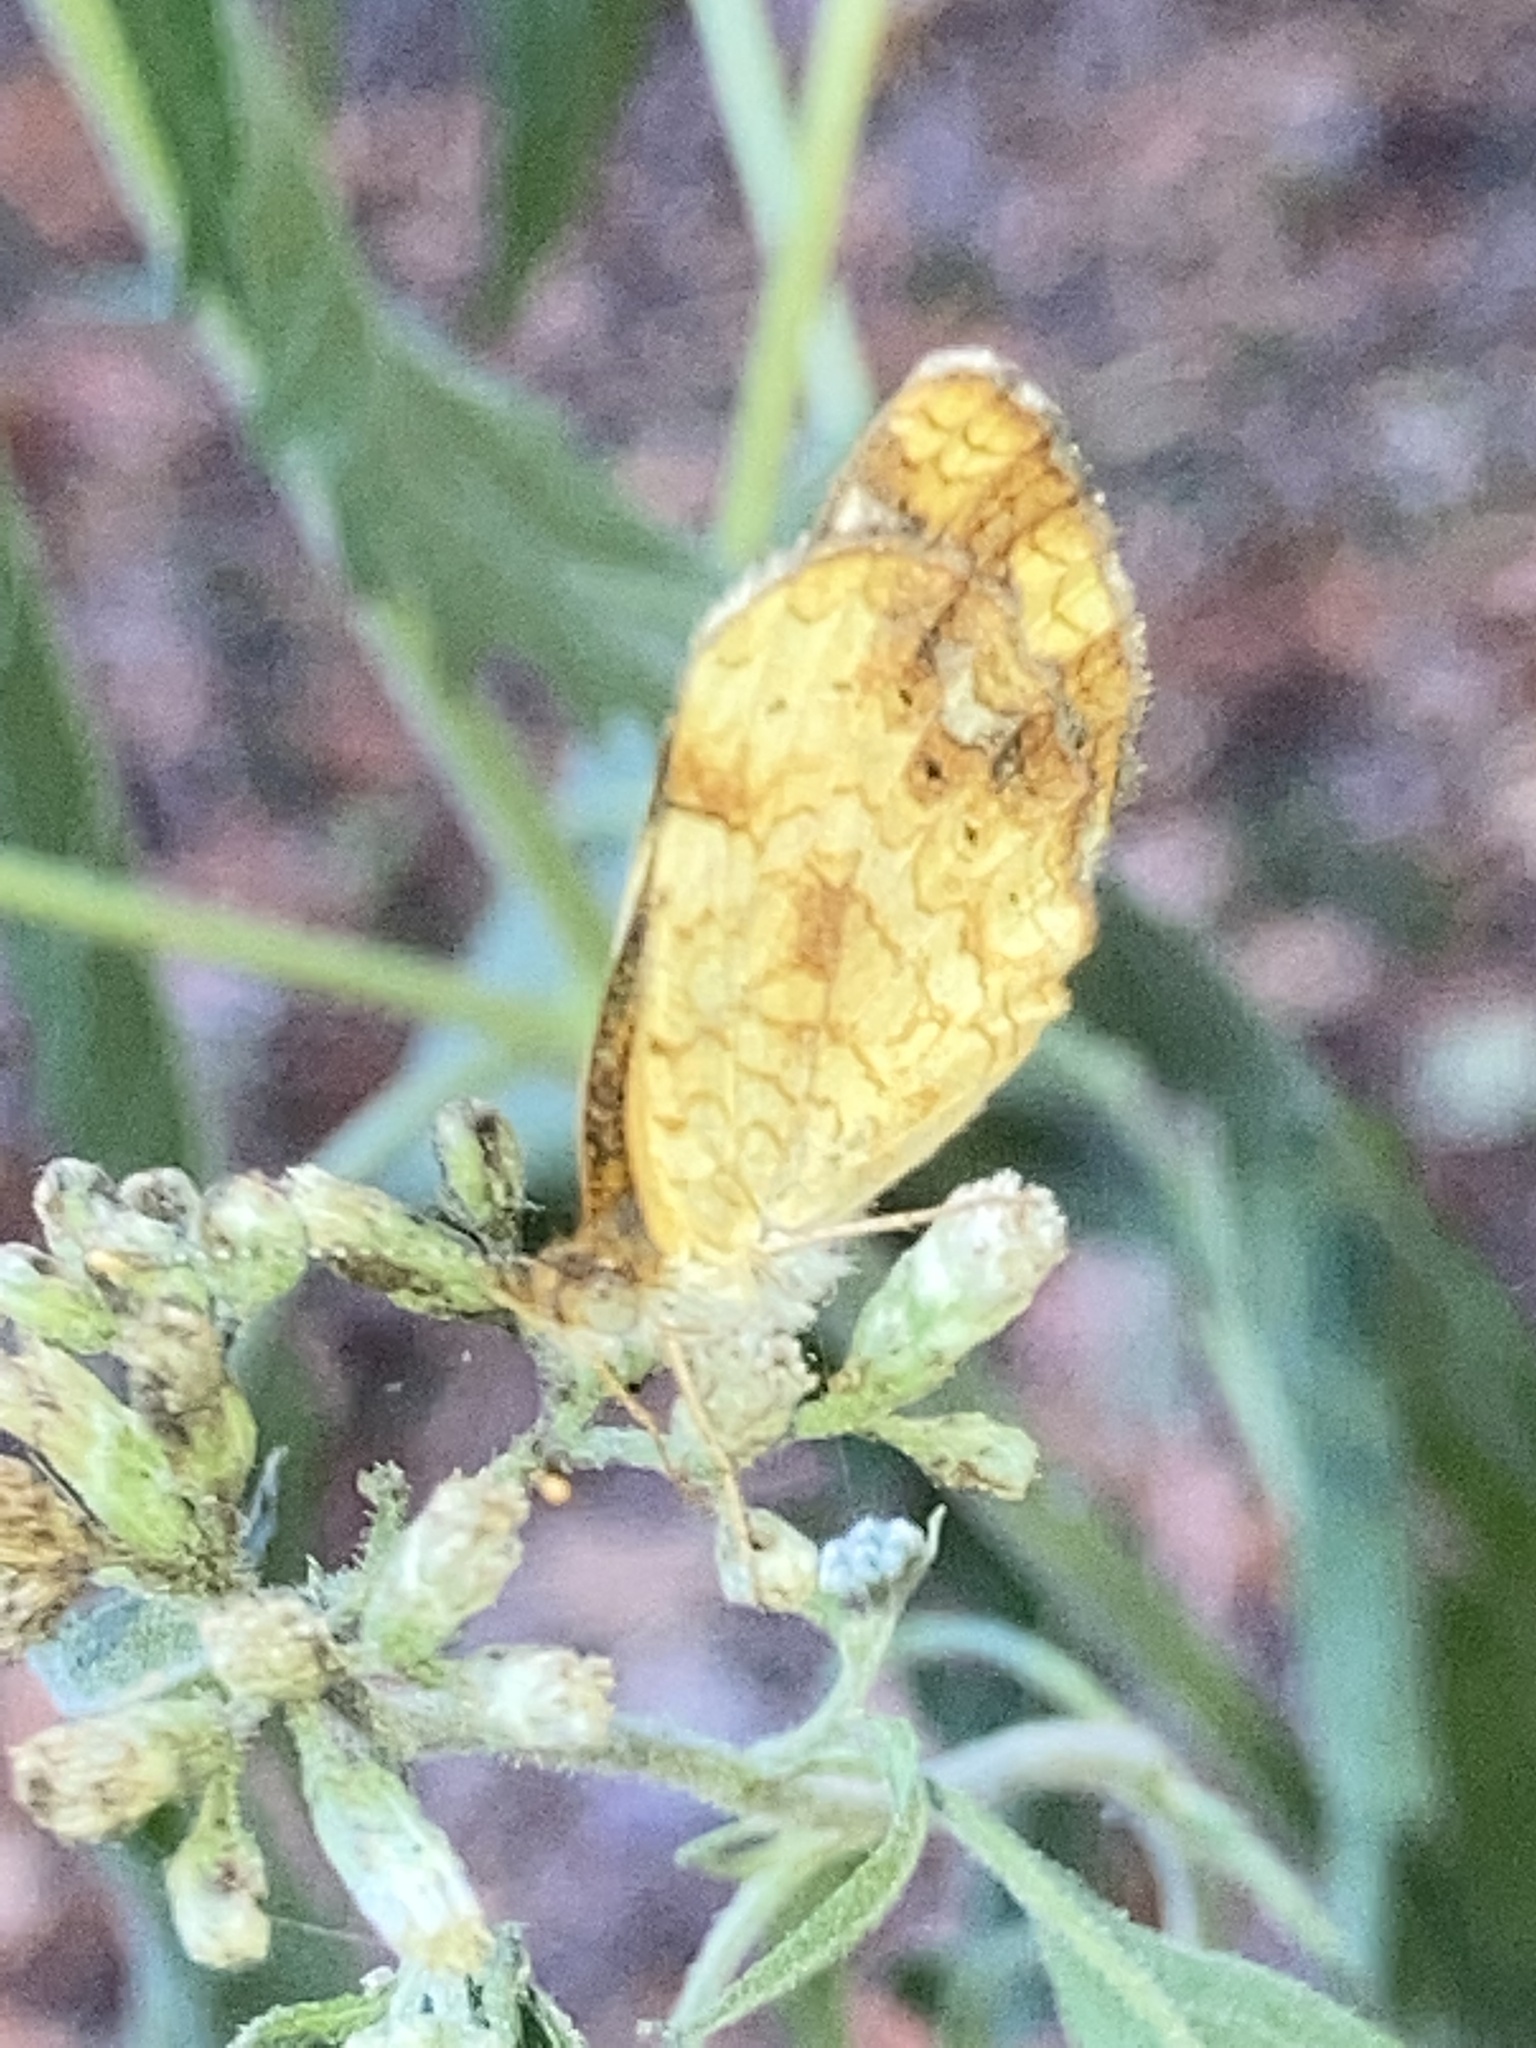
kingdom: Animalia
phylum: Arthropoda
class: Insecta
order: Lepidoptera
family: Nymphalidae
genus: Phyciodes
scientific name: Phyciodes tharos
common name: Pearl crescent
